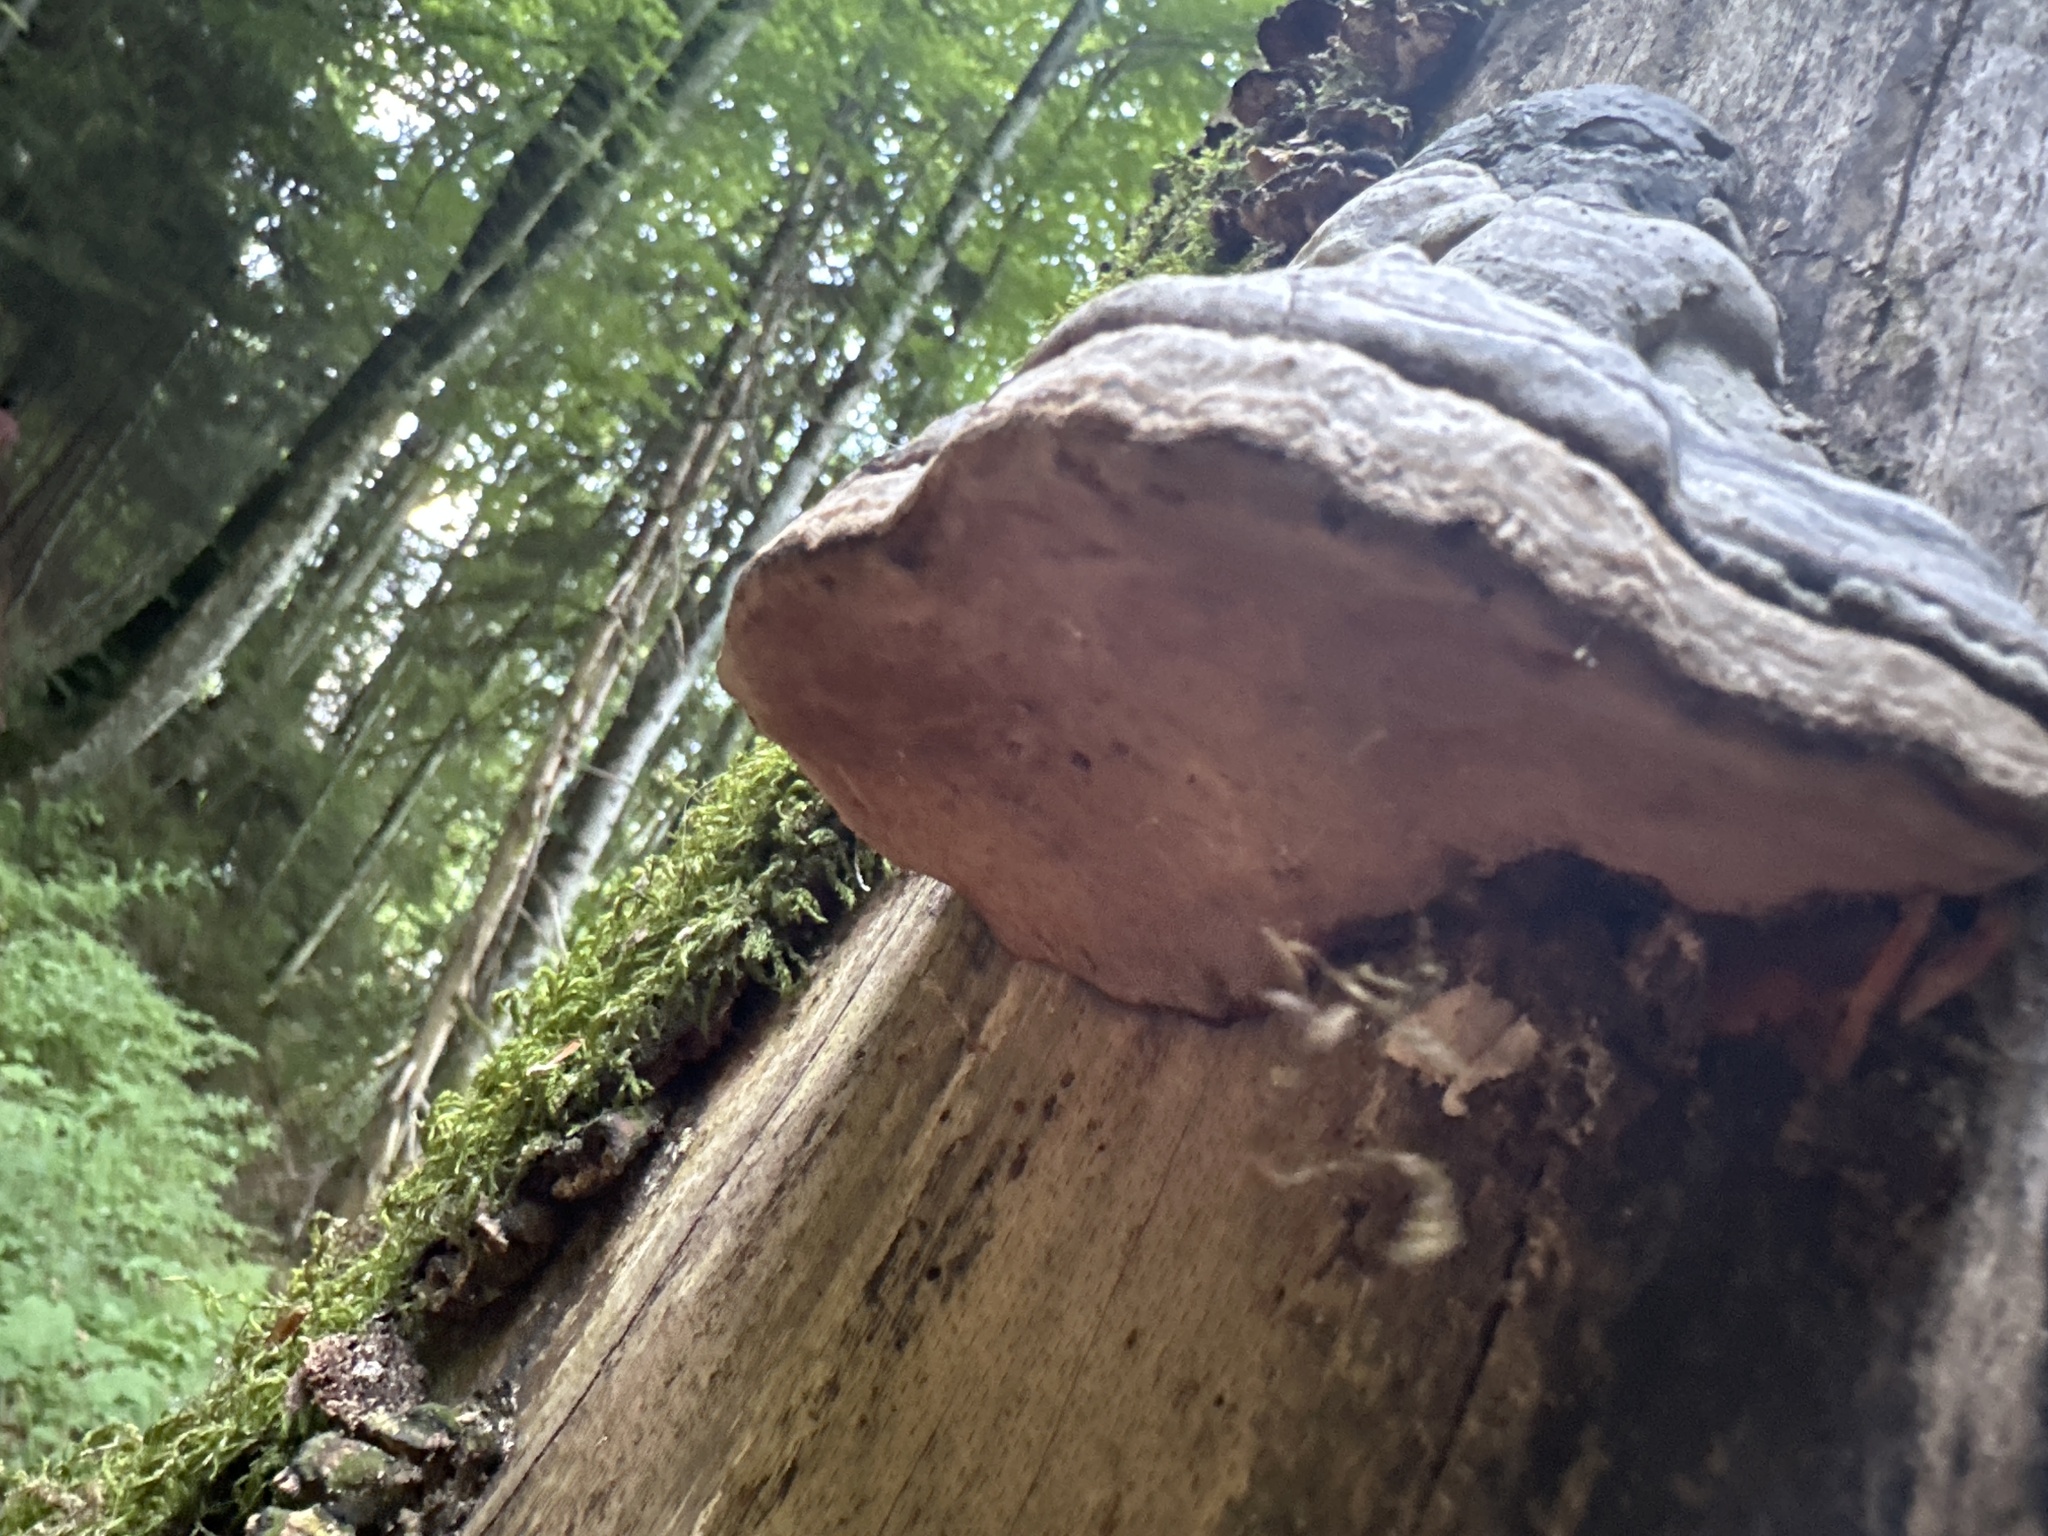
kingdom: Fungi
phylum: Basidiomycota
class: Agaricomycetes
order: Polyporales
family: Polyporaceae
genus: Fomes
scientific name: Fomes fomentarius
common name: Hoof fungus
